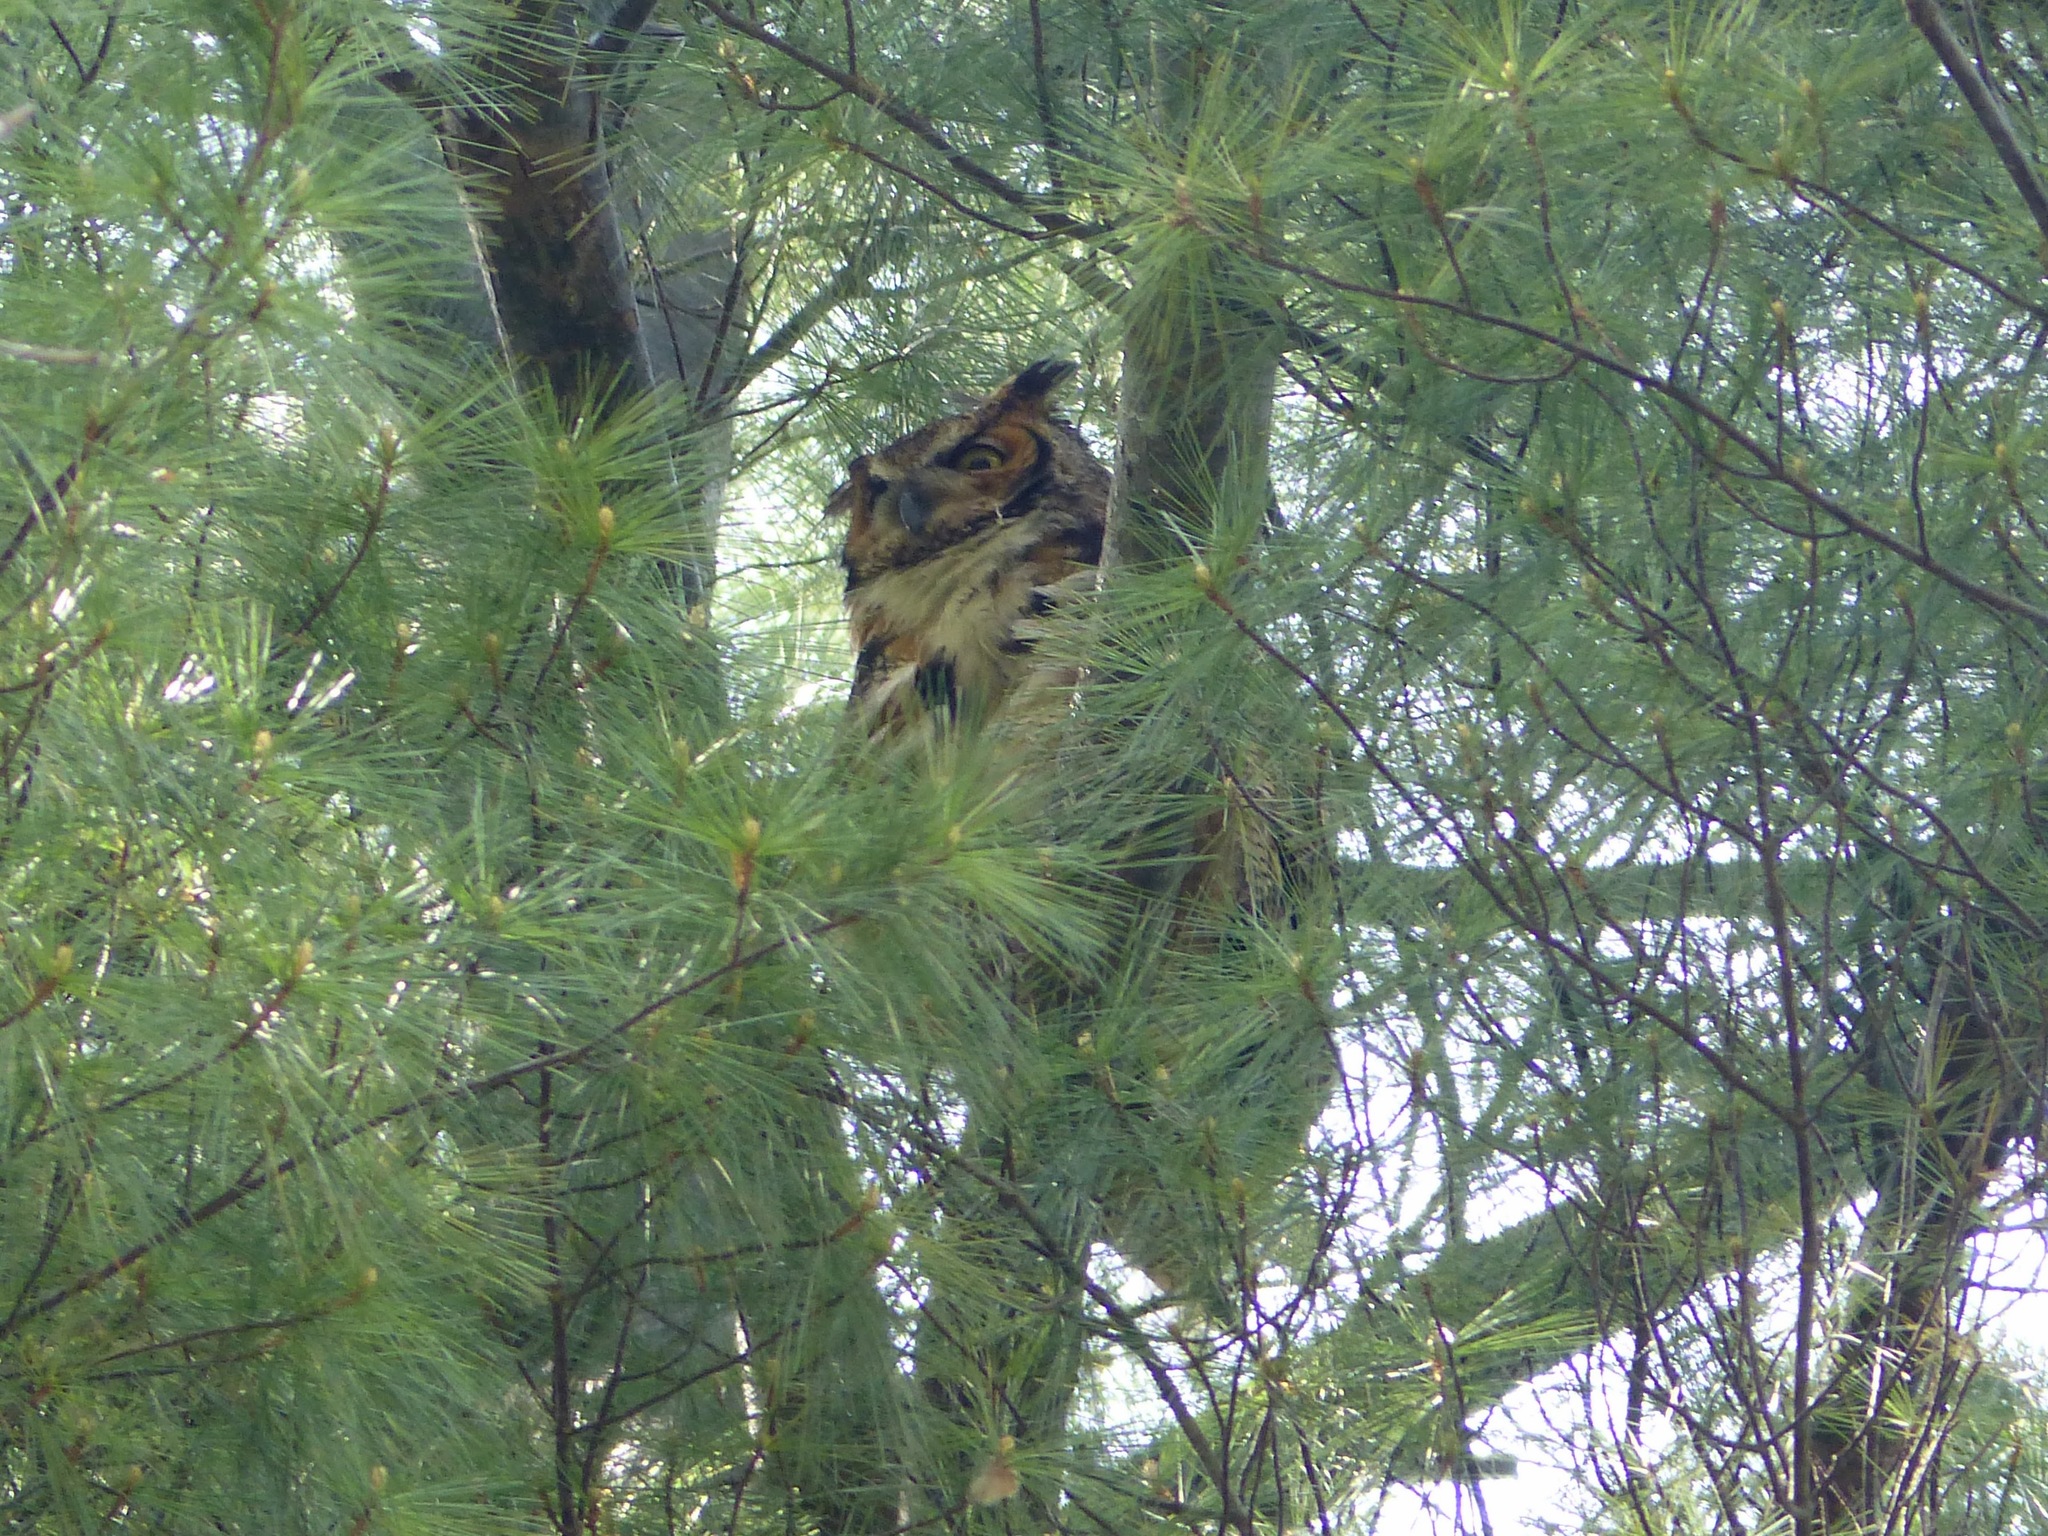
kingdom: Animalia
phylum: Chordata
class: Aves
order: Strigiformes
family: Strigidae
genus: Bubo
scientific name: Bubo virginianus
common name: Great horned owl
